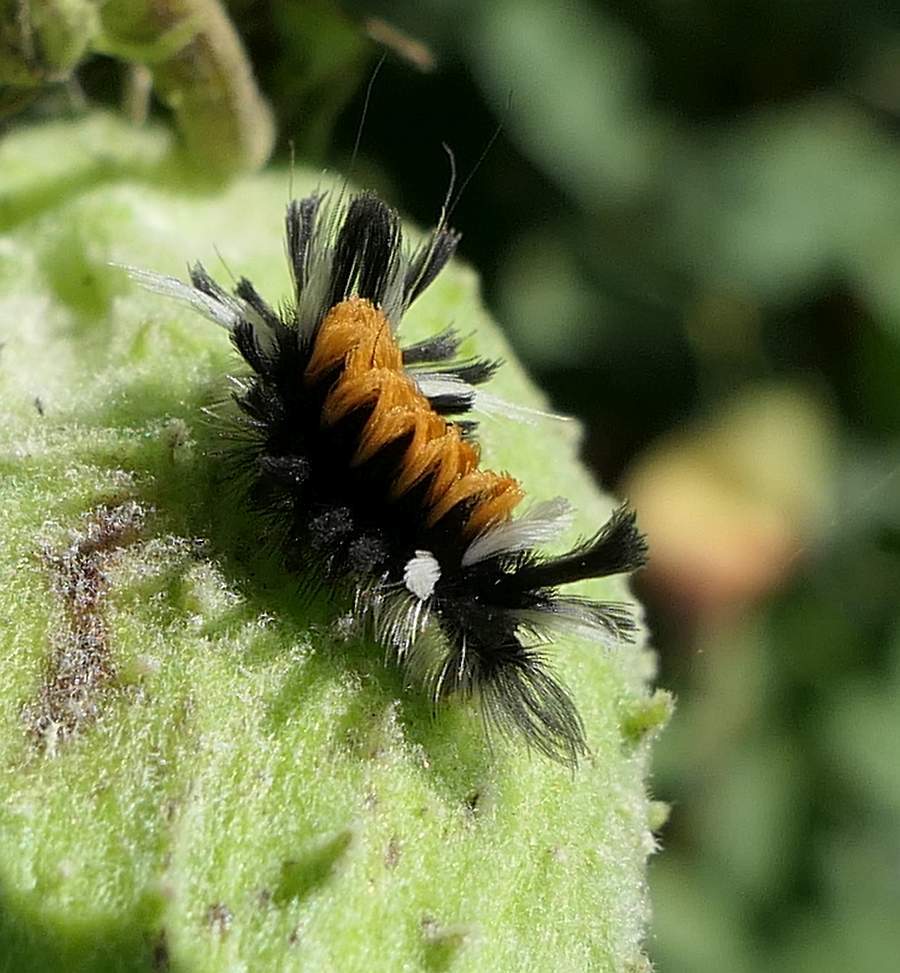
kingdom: Animalia
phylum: Arthropoda
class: Insecta
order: Lepidoptera
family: Erebidae
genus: Euchaetes
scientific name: Euchaetes egle
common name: Milkweed tussock moth
